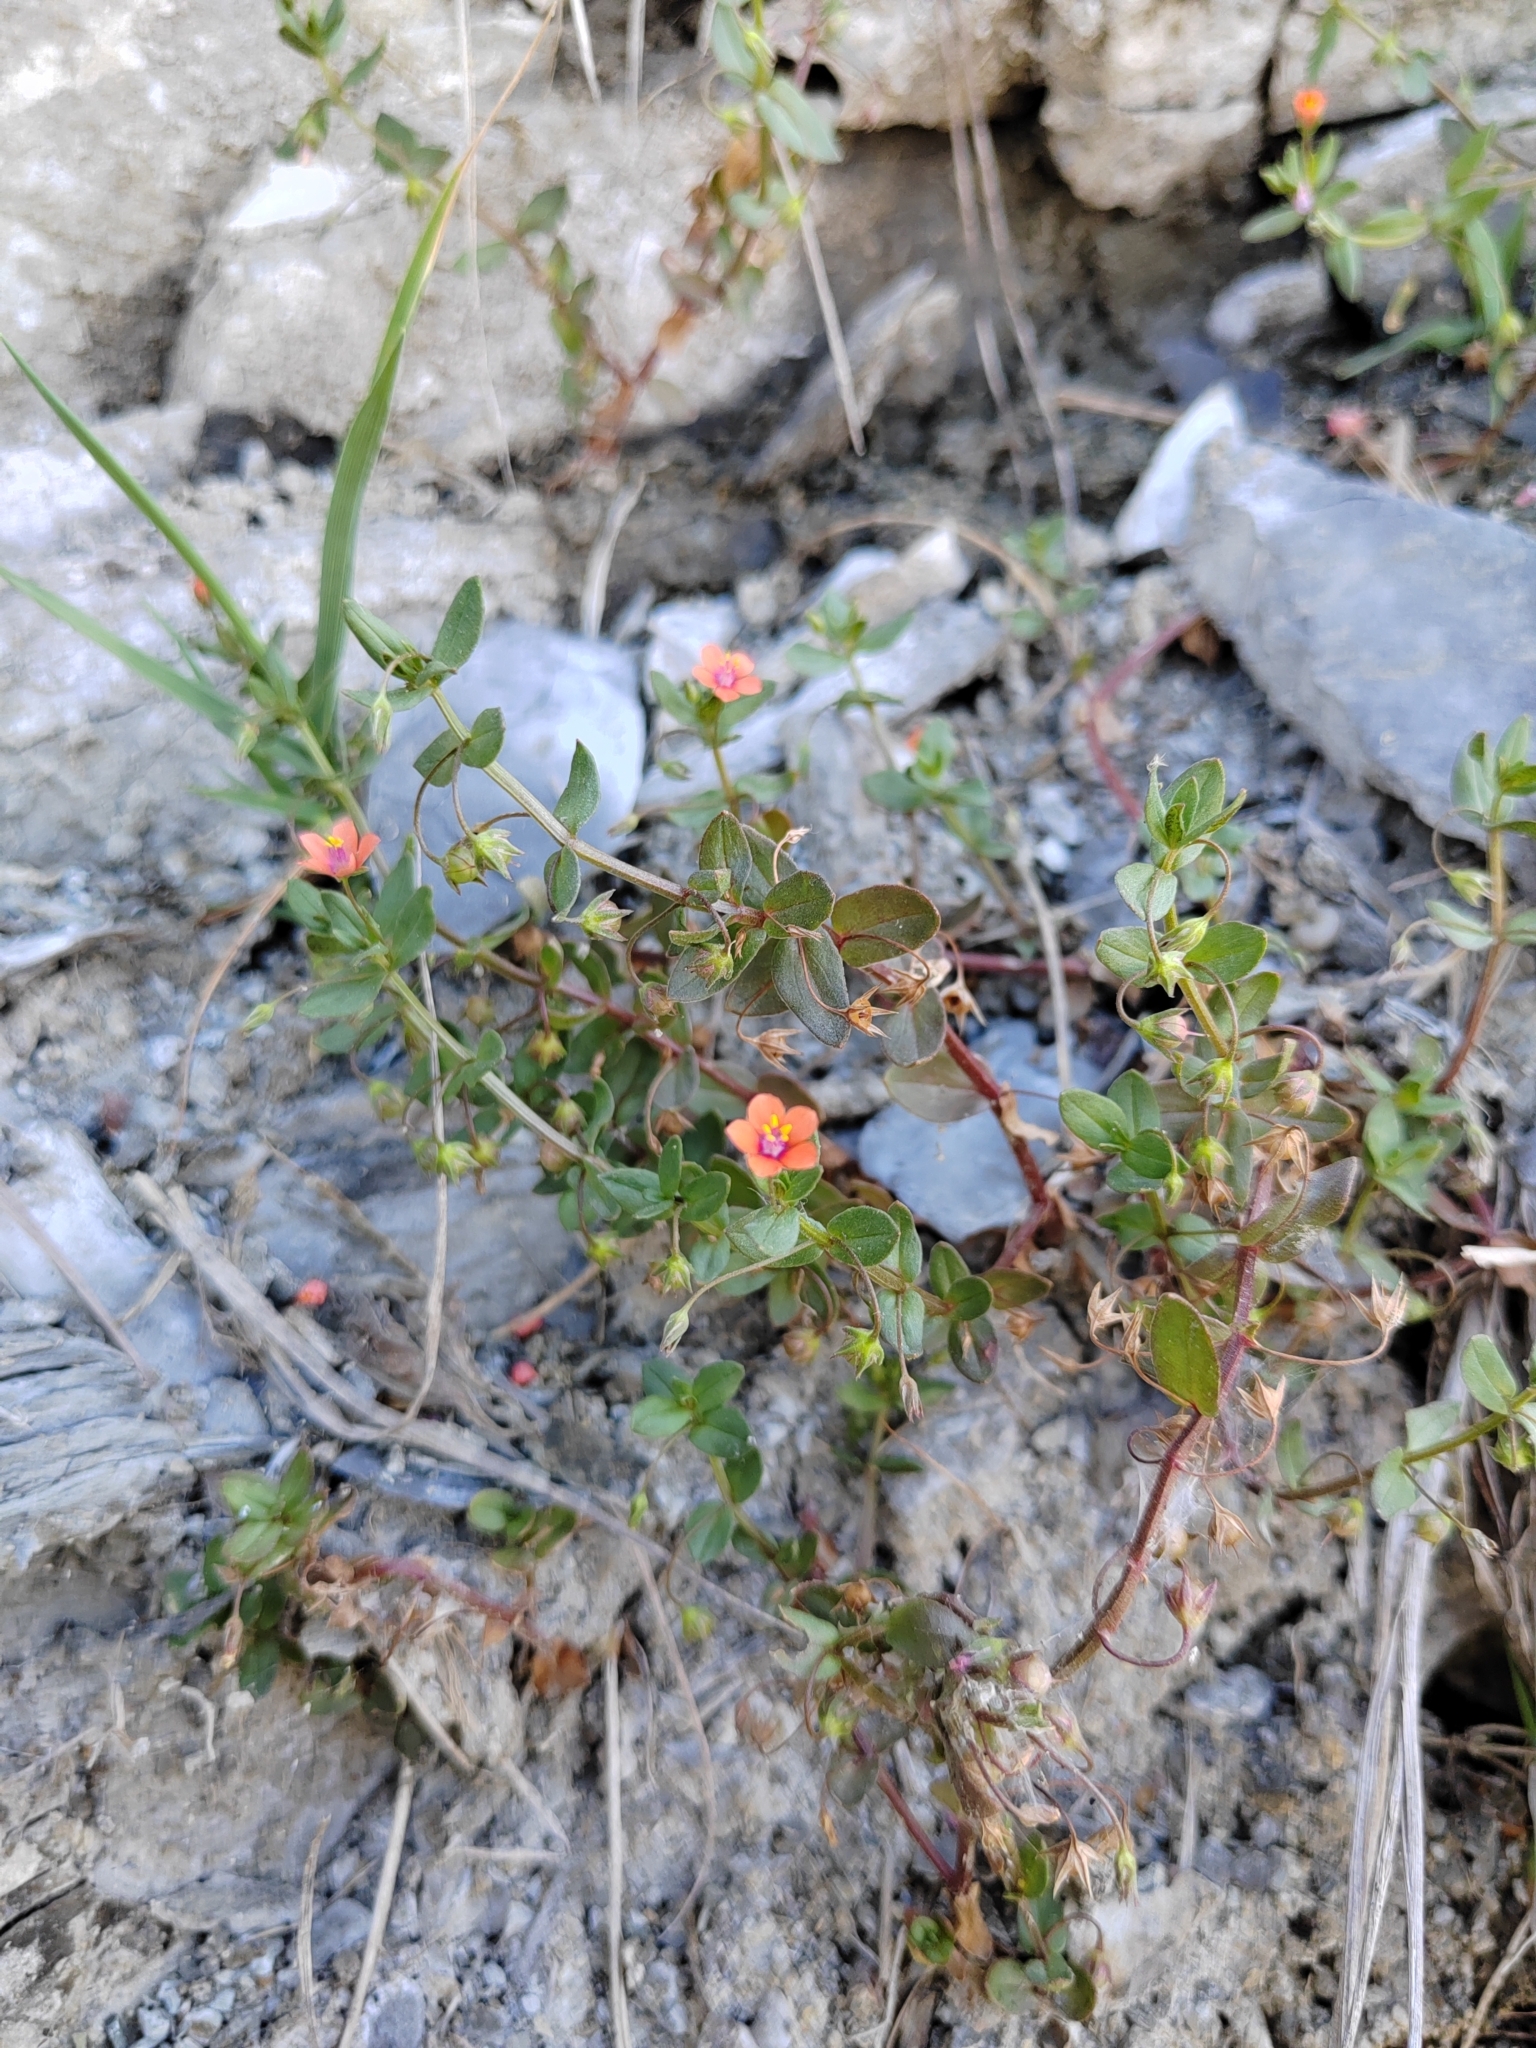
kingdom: Plantae
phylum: Tracheophyta
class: Magnoliopsida
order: Ericales
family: Primulaceae
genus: Lysimachia
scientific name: Lysimachia arvensis
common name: Scarlet pimpernel
